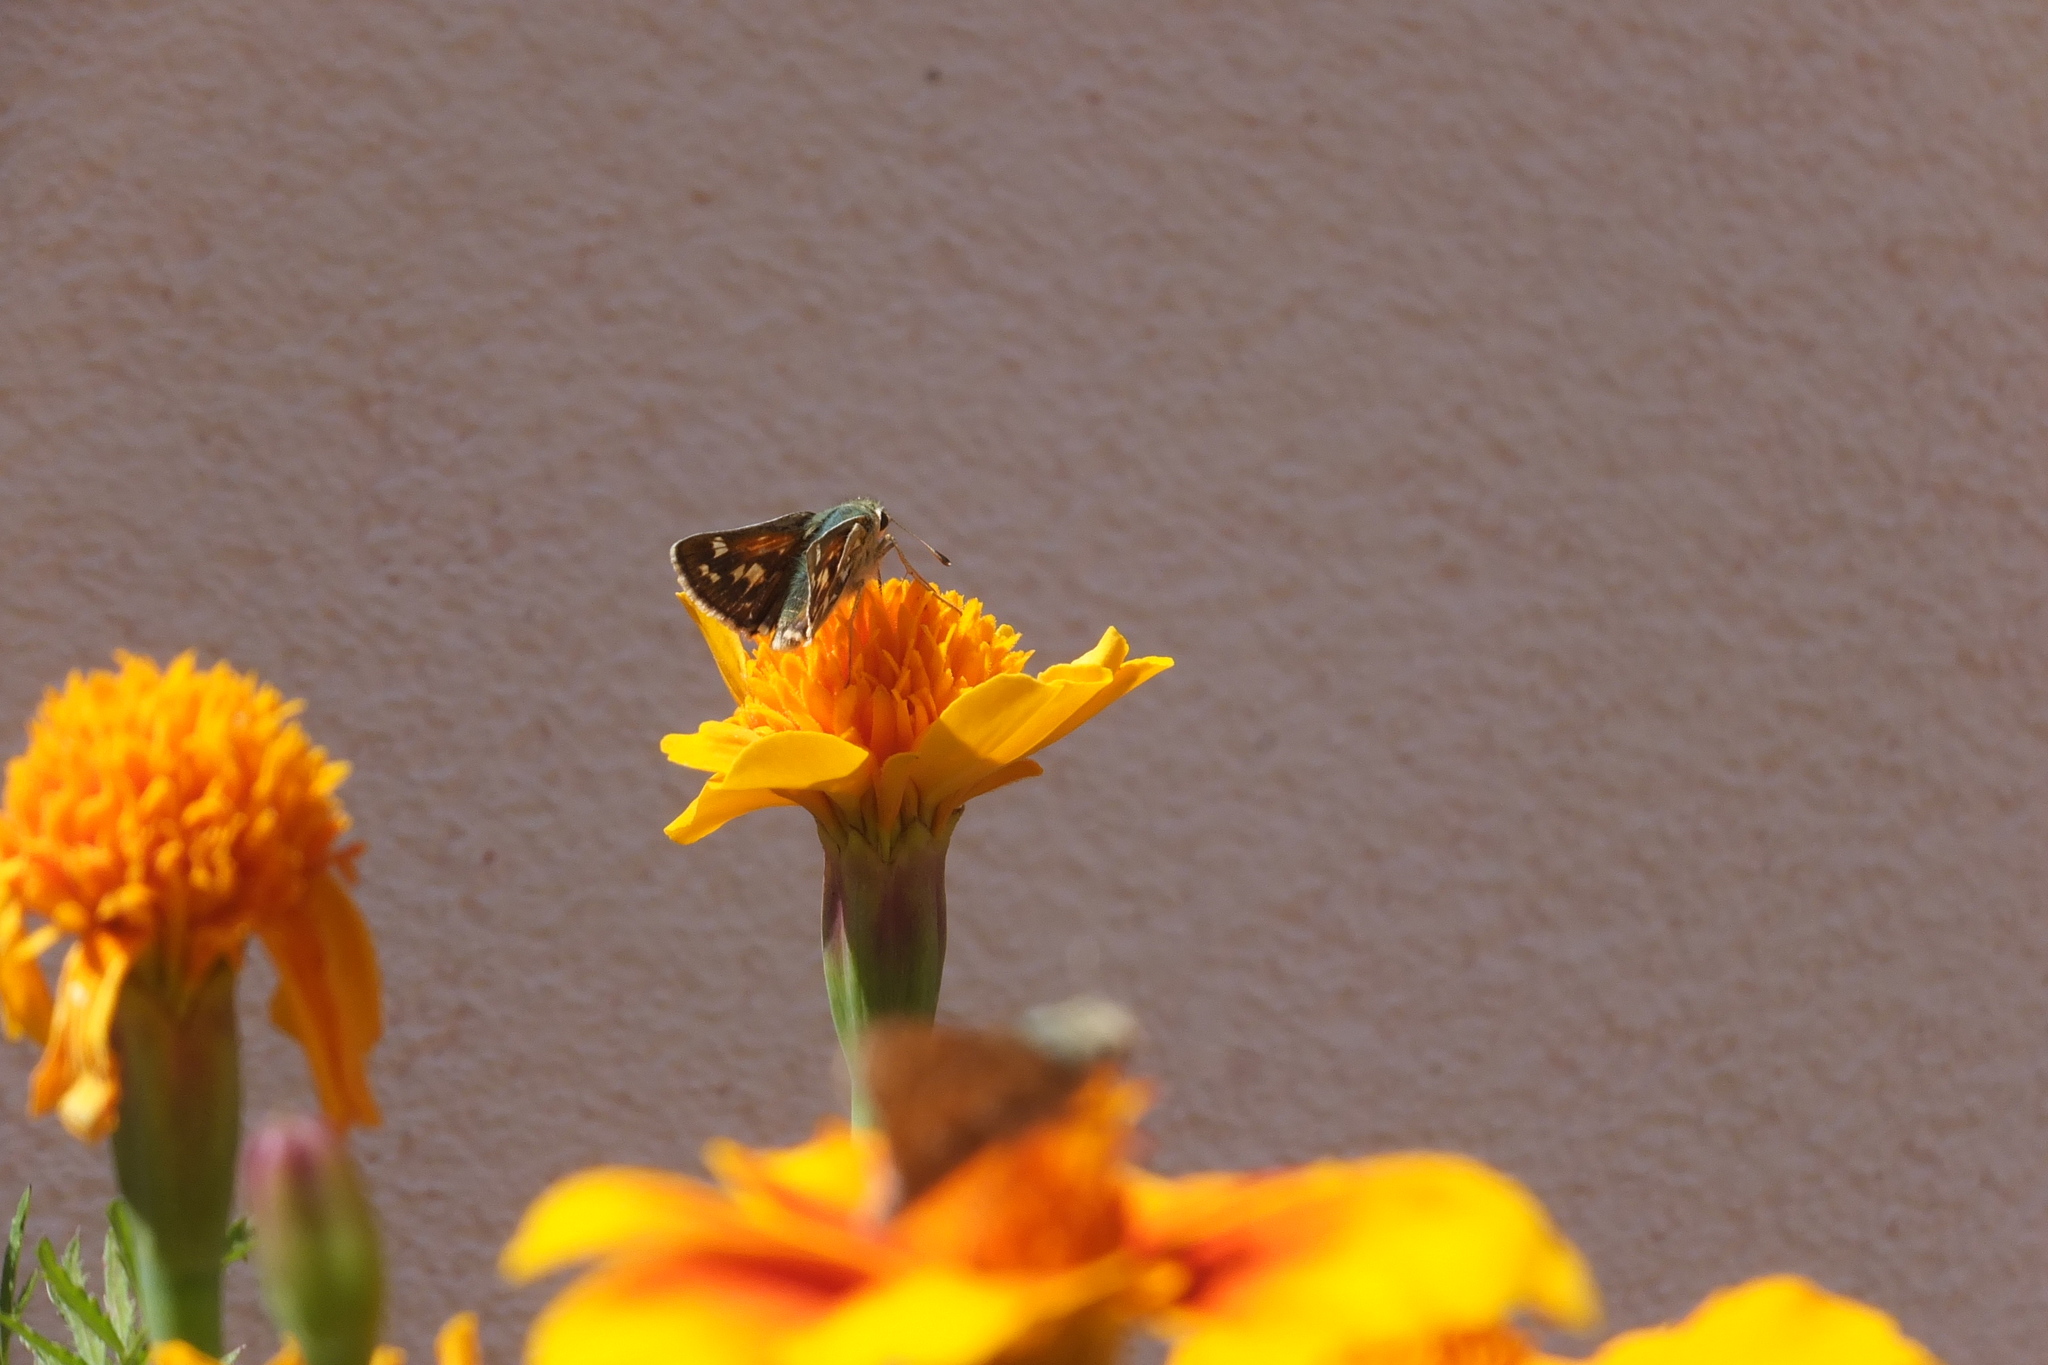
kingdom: Animalia
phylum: Arthropoda
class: Insecta
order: Lepidoptera
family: Hesperiidae
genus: Hesperia
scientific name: Hesperia comma
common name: Common branded skipper
